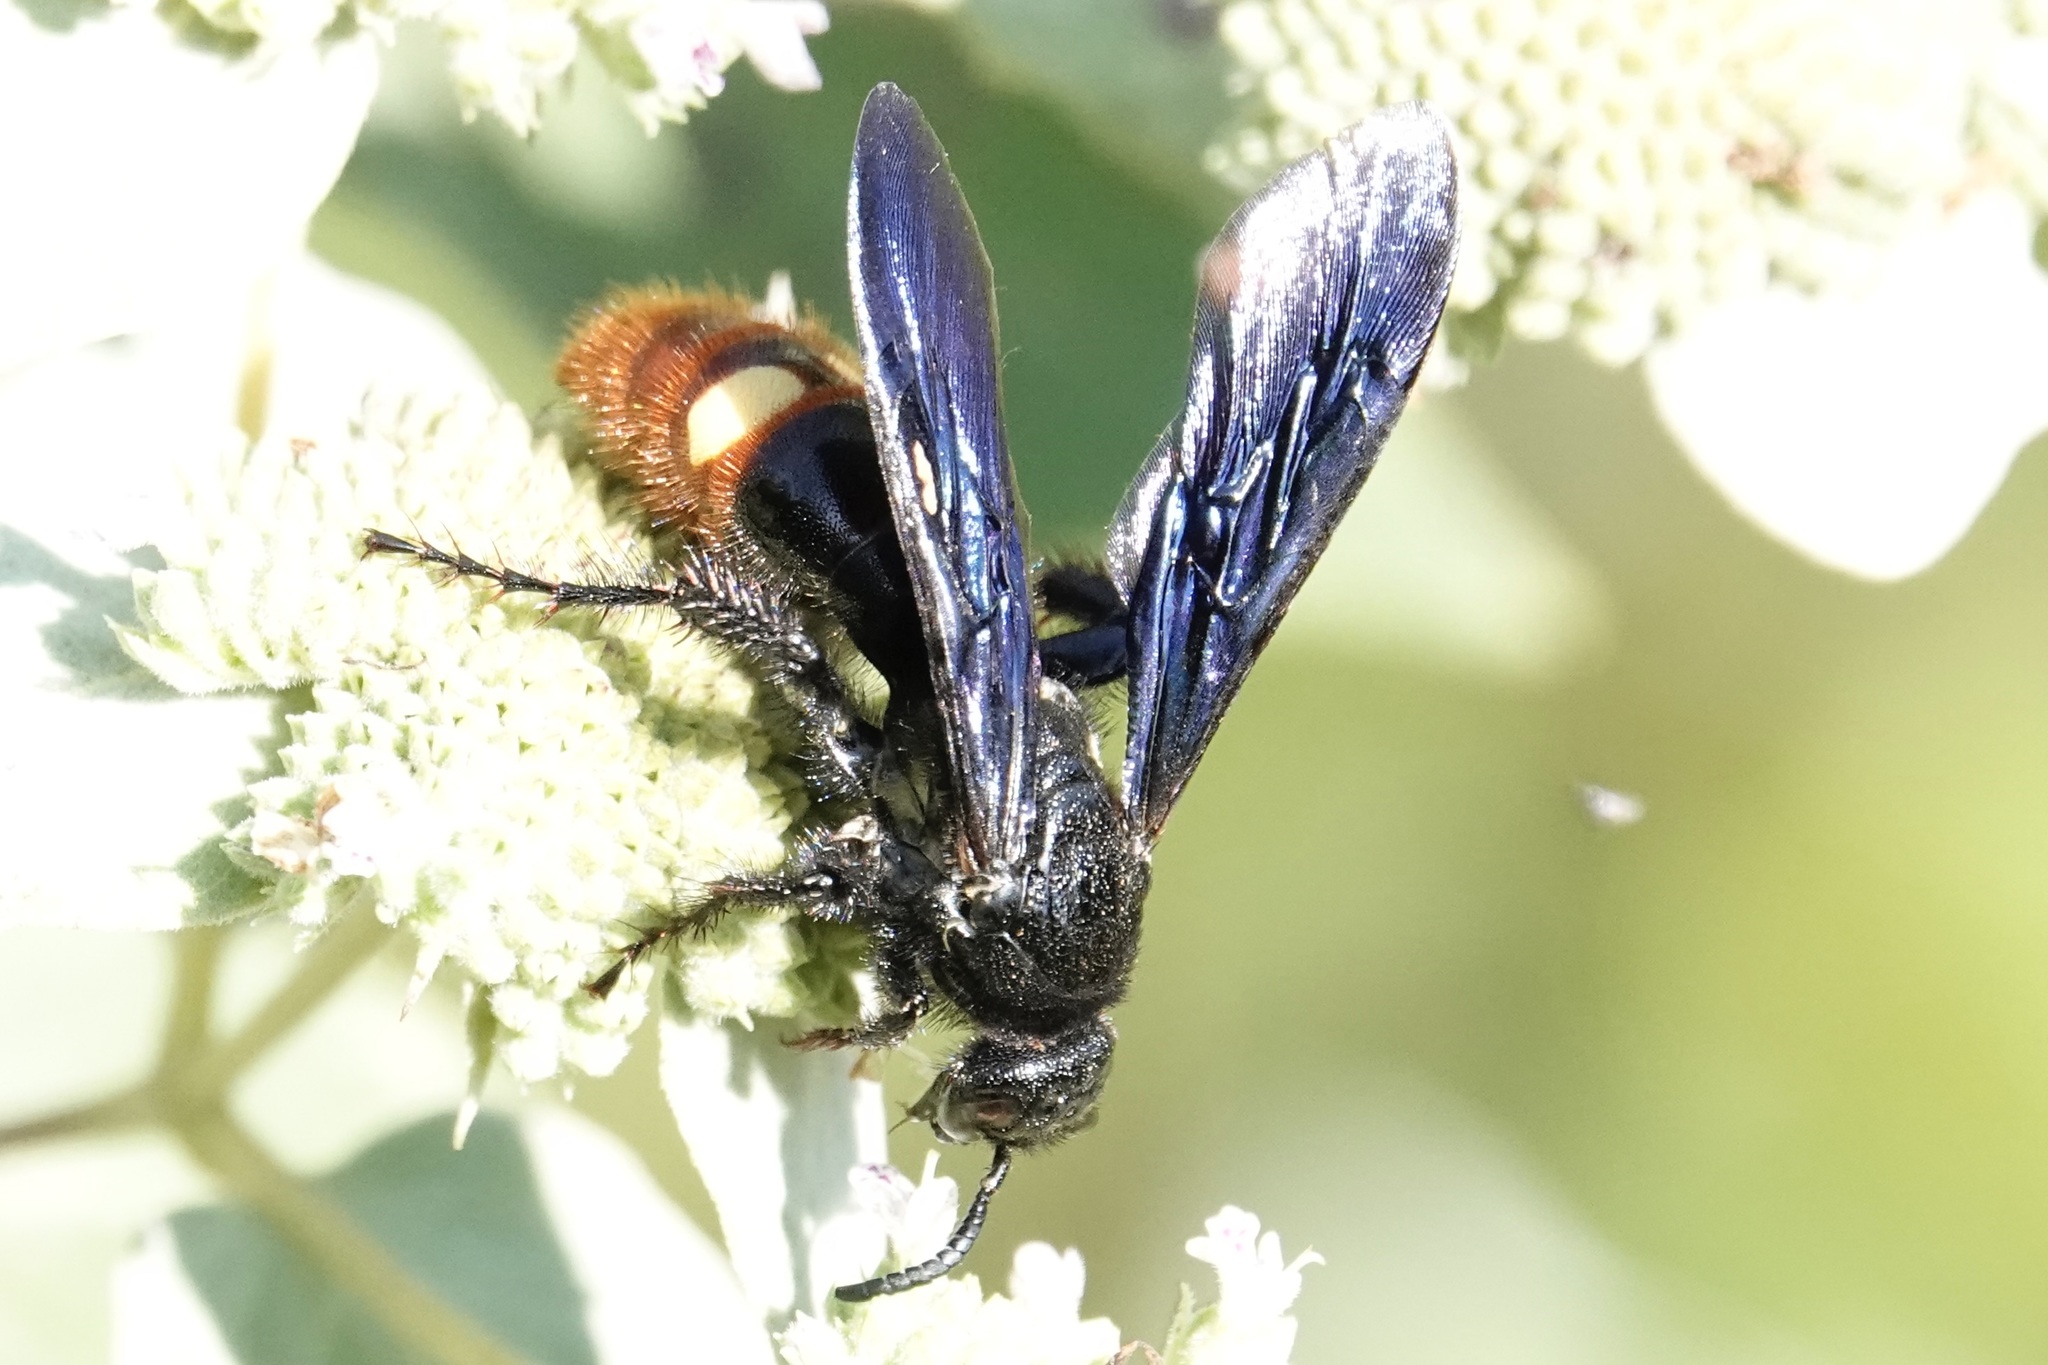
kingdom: Animalia
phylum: Arthropoda
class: Insecta
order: Hymenoptera
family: Scoliidae
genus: Scolia
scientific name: Scolia dubia
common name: Blue-winged scoliid wasp
